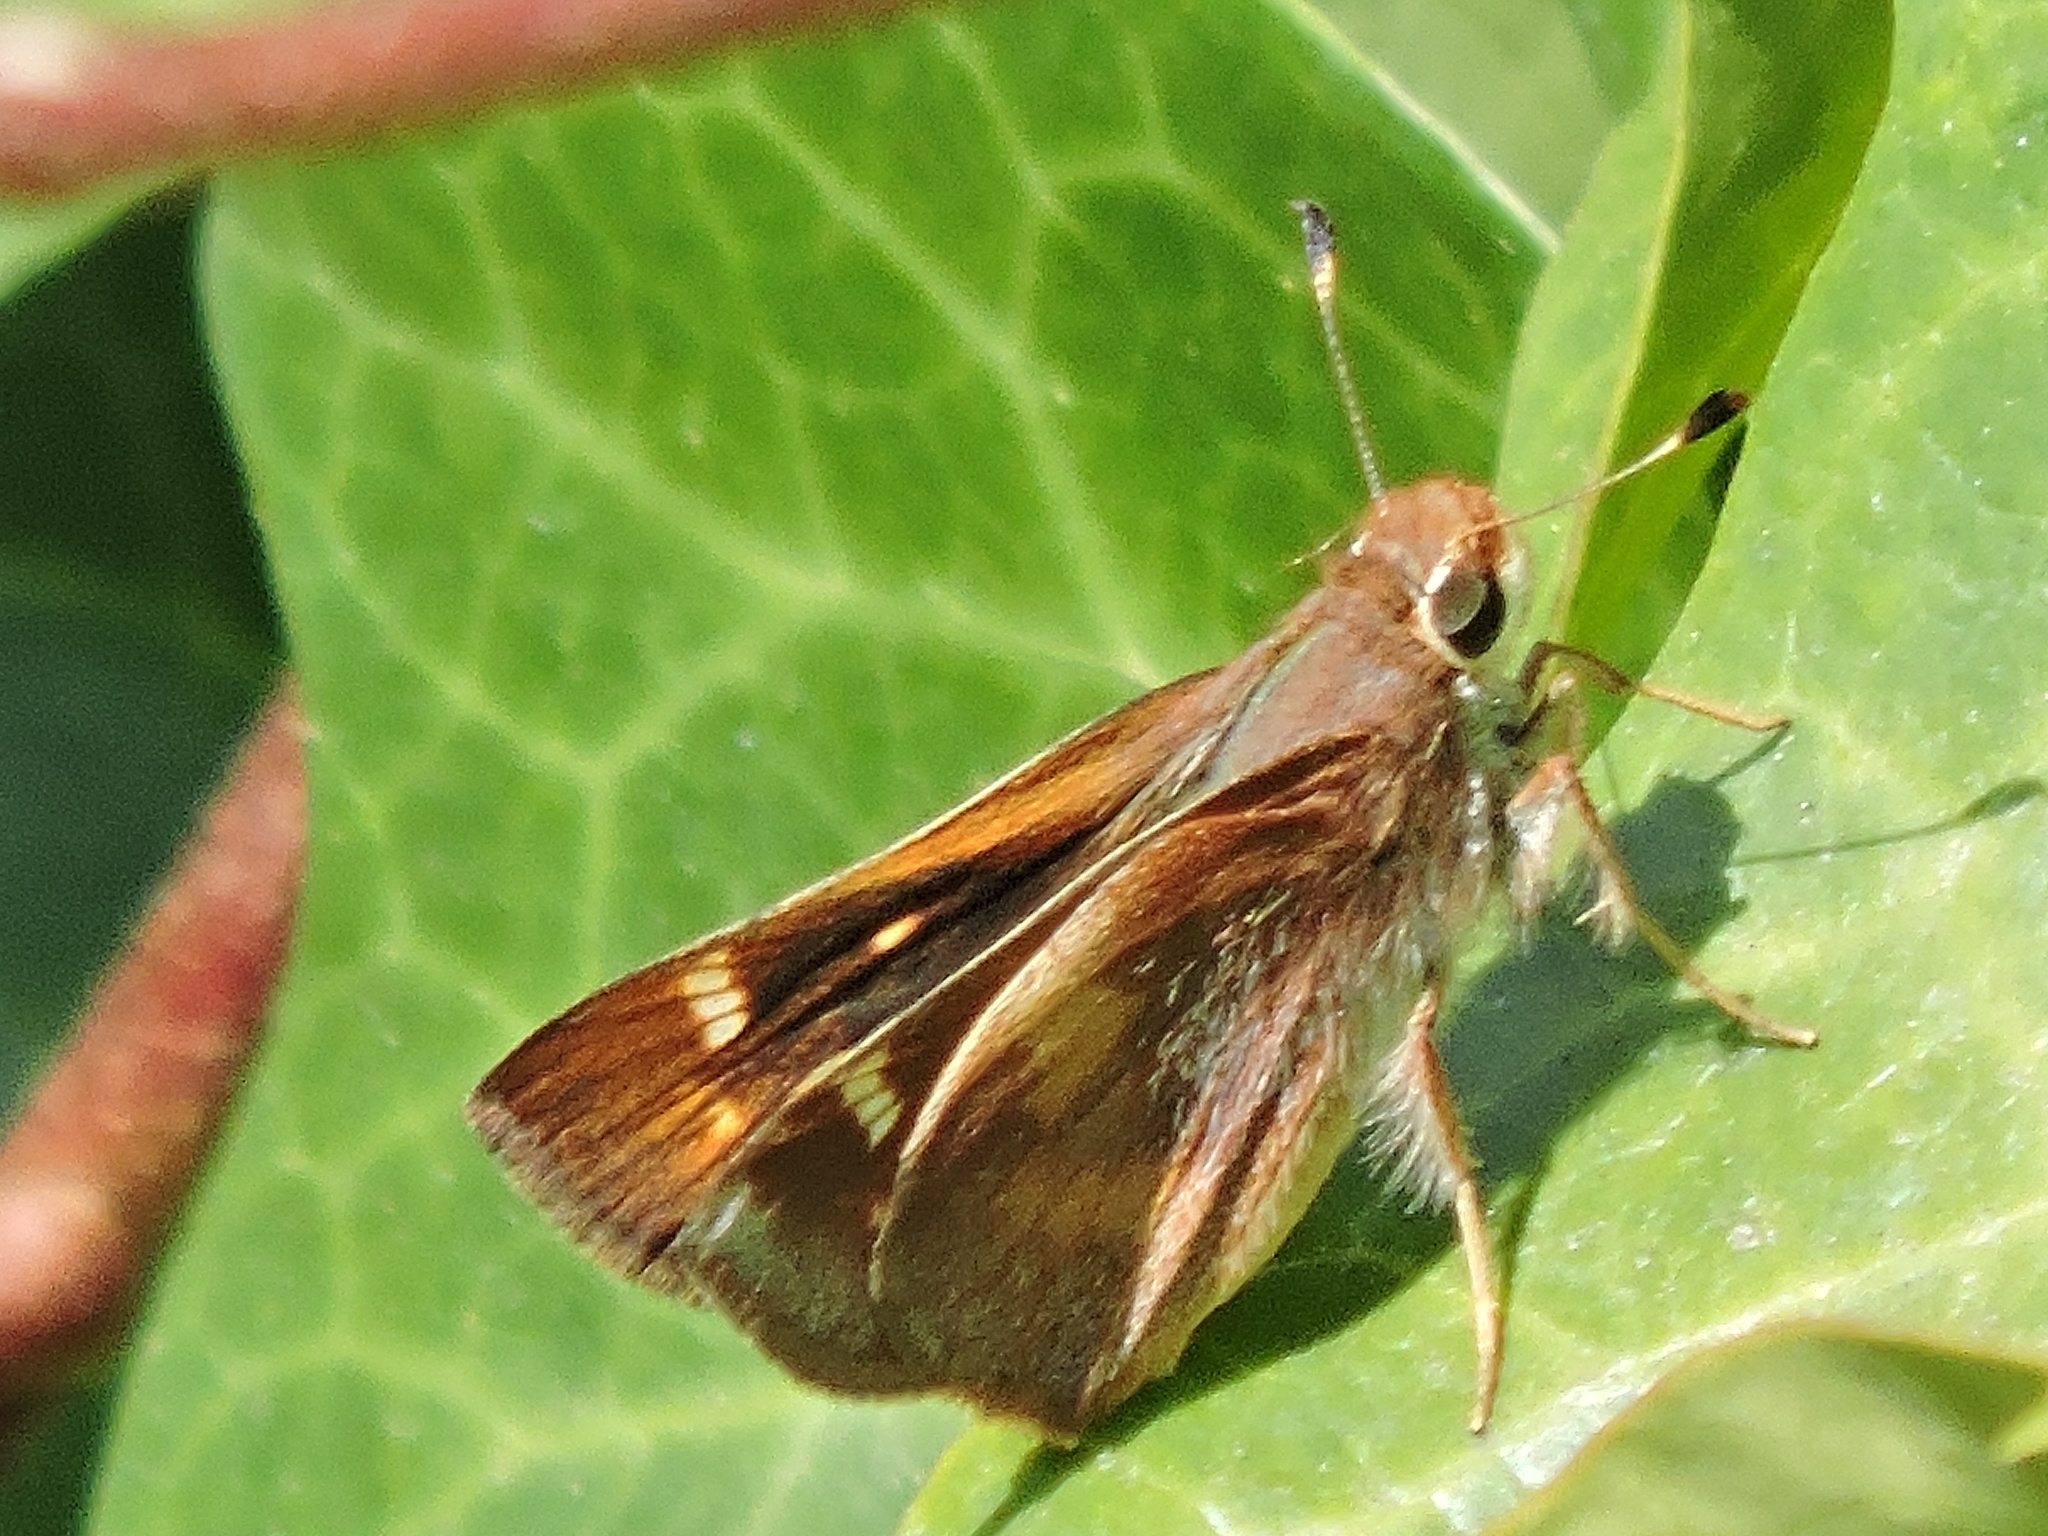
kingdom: Animalia
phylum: Arthropoda
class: Insecta
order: Lepidoptera
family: Hesperiidae
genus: Lon
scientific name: Lon melane
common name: Umber skipper
